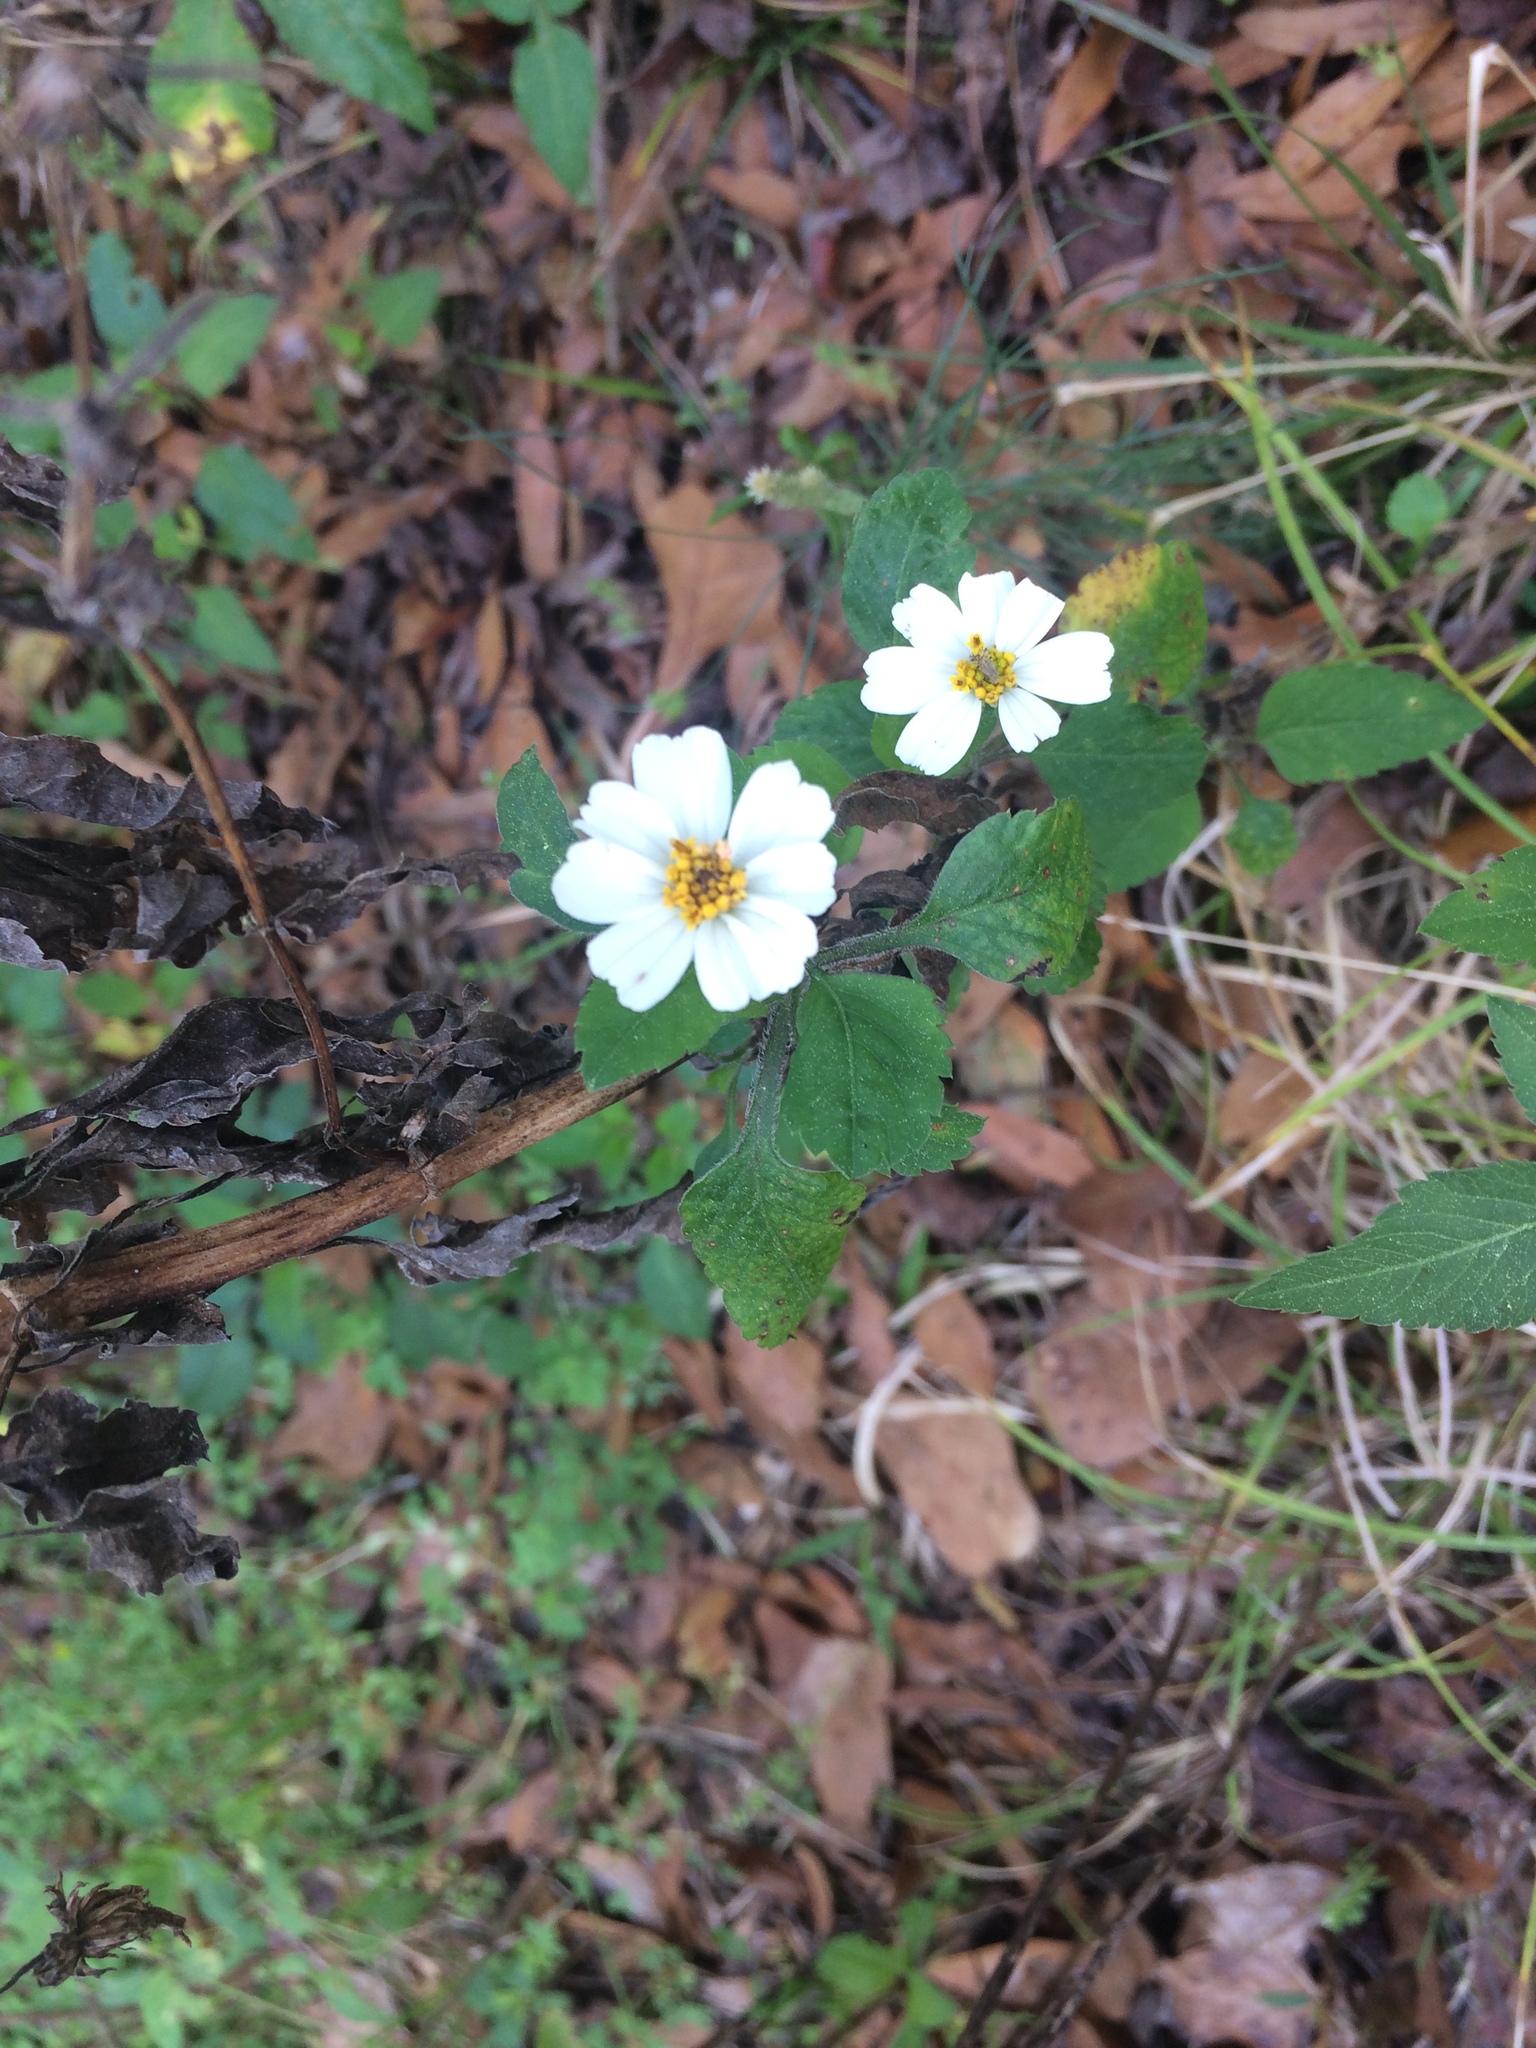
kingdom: Plantae
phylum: Tracheophyta
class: Magnoliopsida
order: Asterales
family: Asteraceae
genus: Bidens
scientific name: Bidens alba
